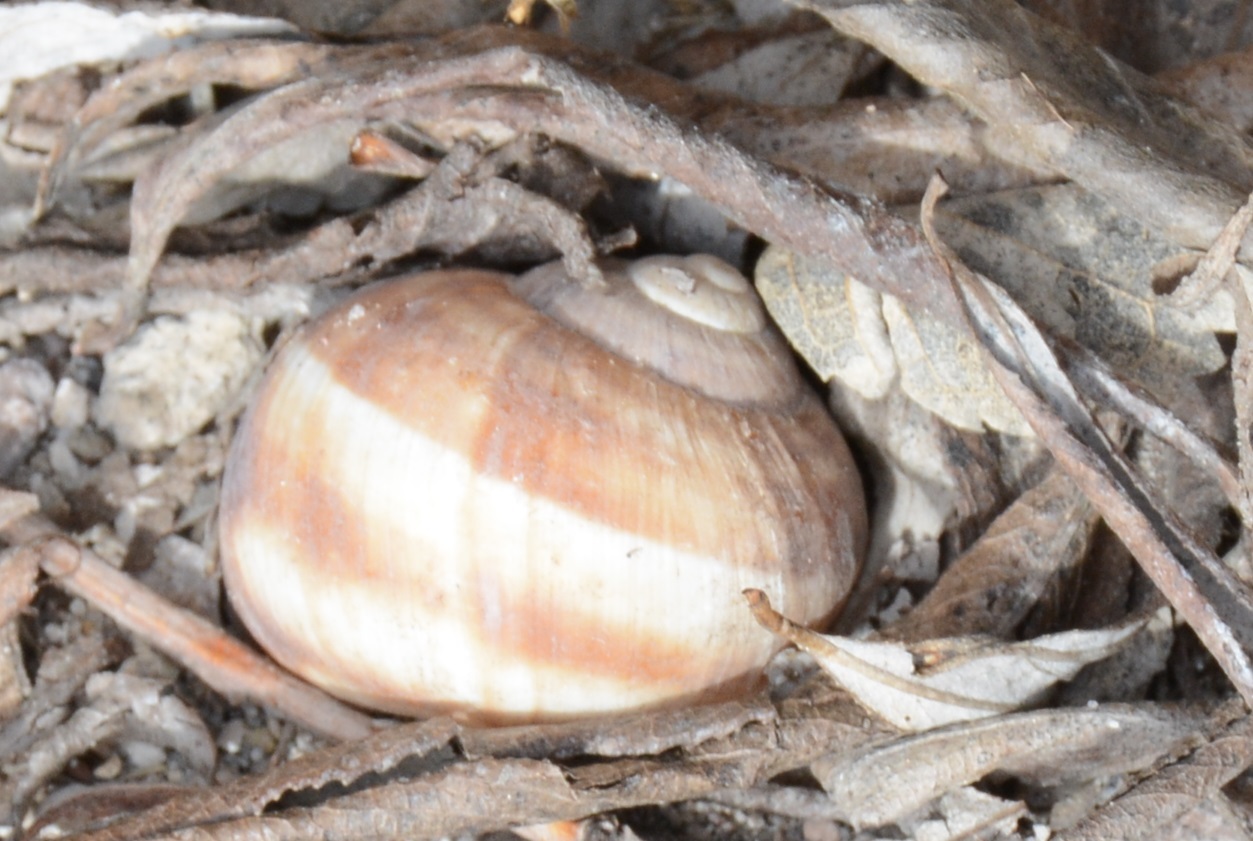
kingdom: Animalia
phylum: Mollusca
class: Gastropoda
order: Stylommatophora
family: Helicidae
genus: Helix
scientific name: Helix lucorum
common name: Turkish snail
